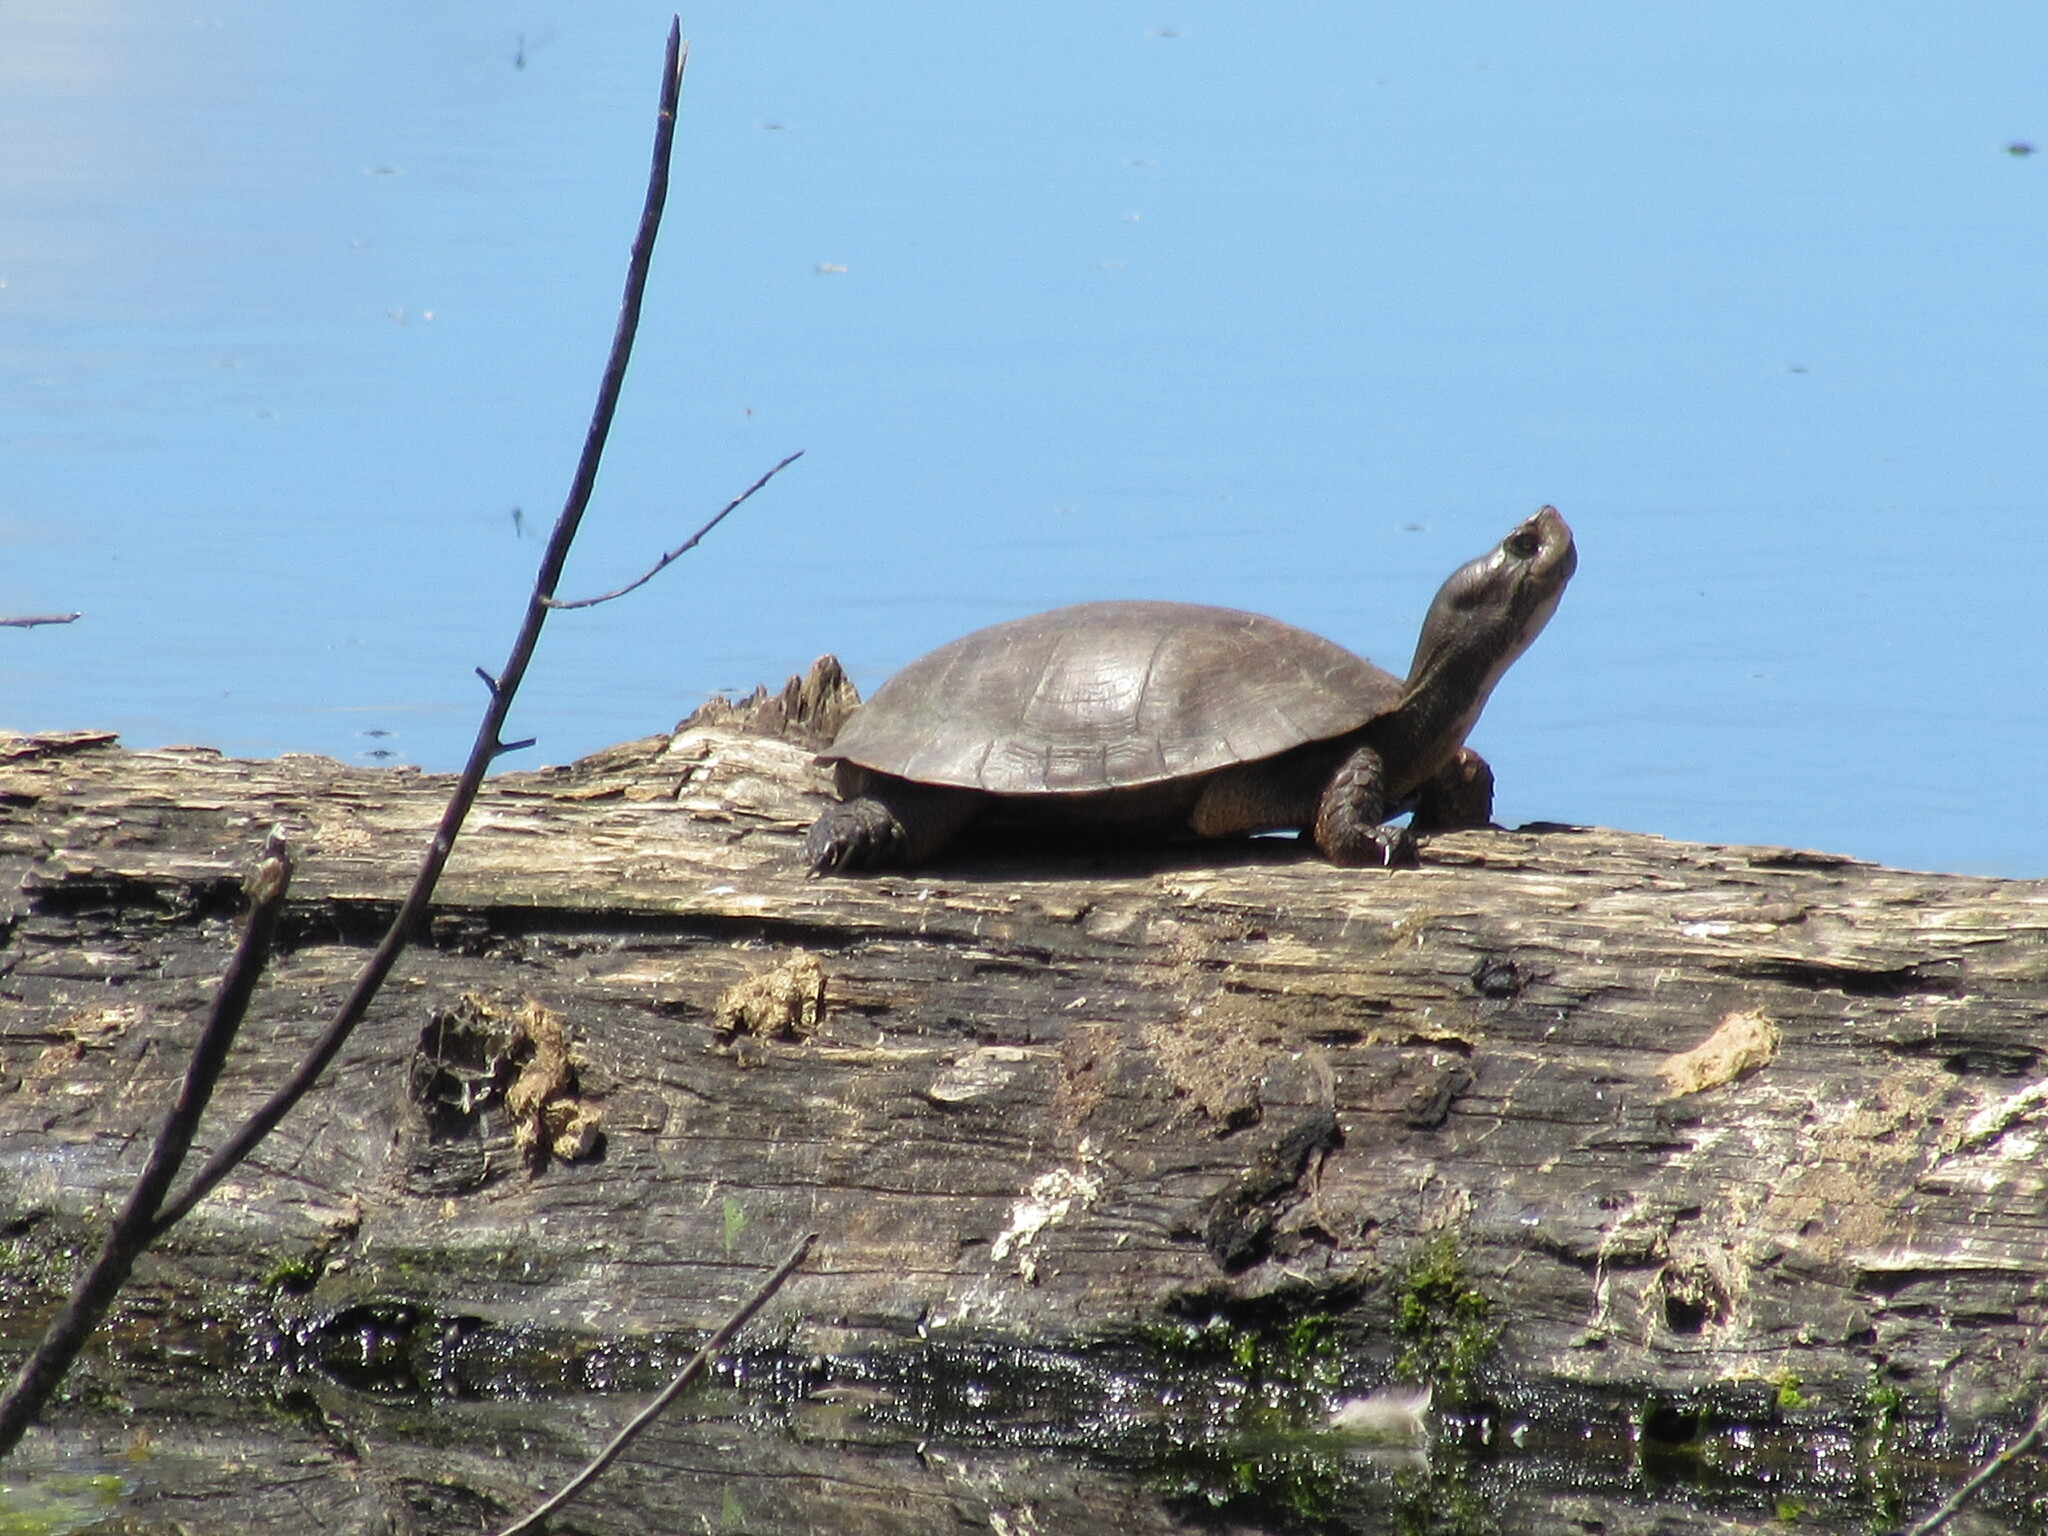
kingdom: Animalia
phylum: Chordata
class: Testudines
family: Emydidae
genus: Actinemys
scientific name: Actinemys marmorata
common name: Western pond turtle
